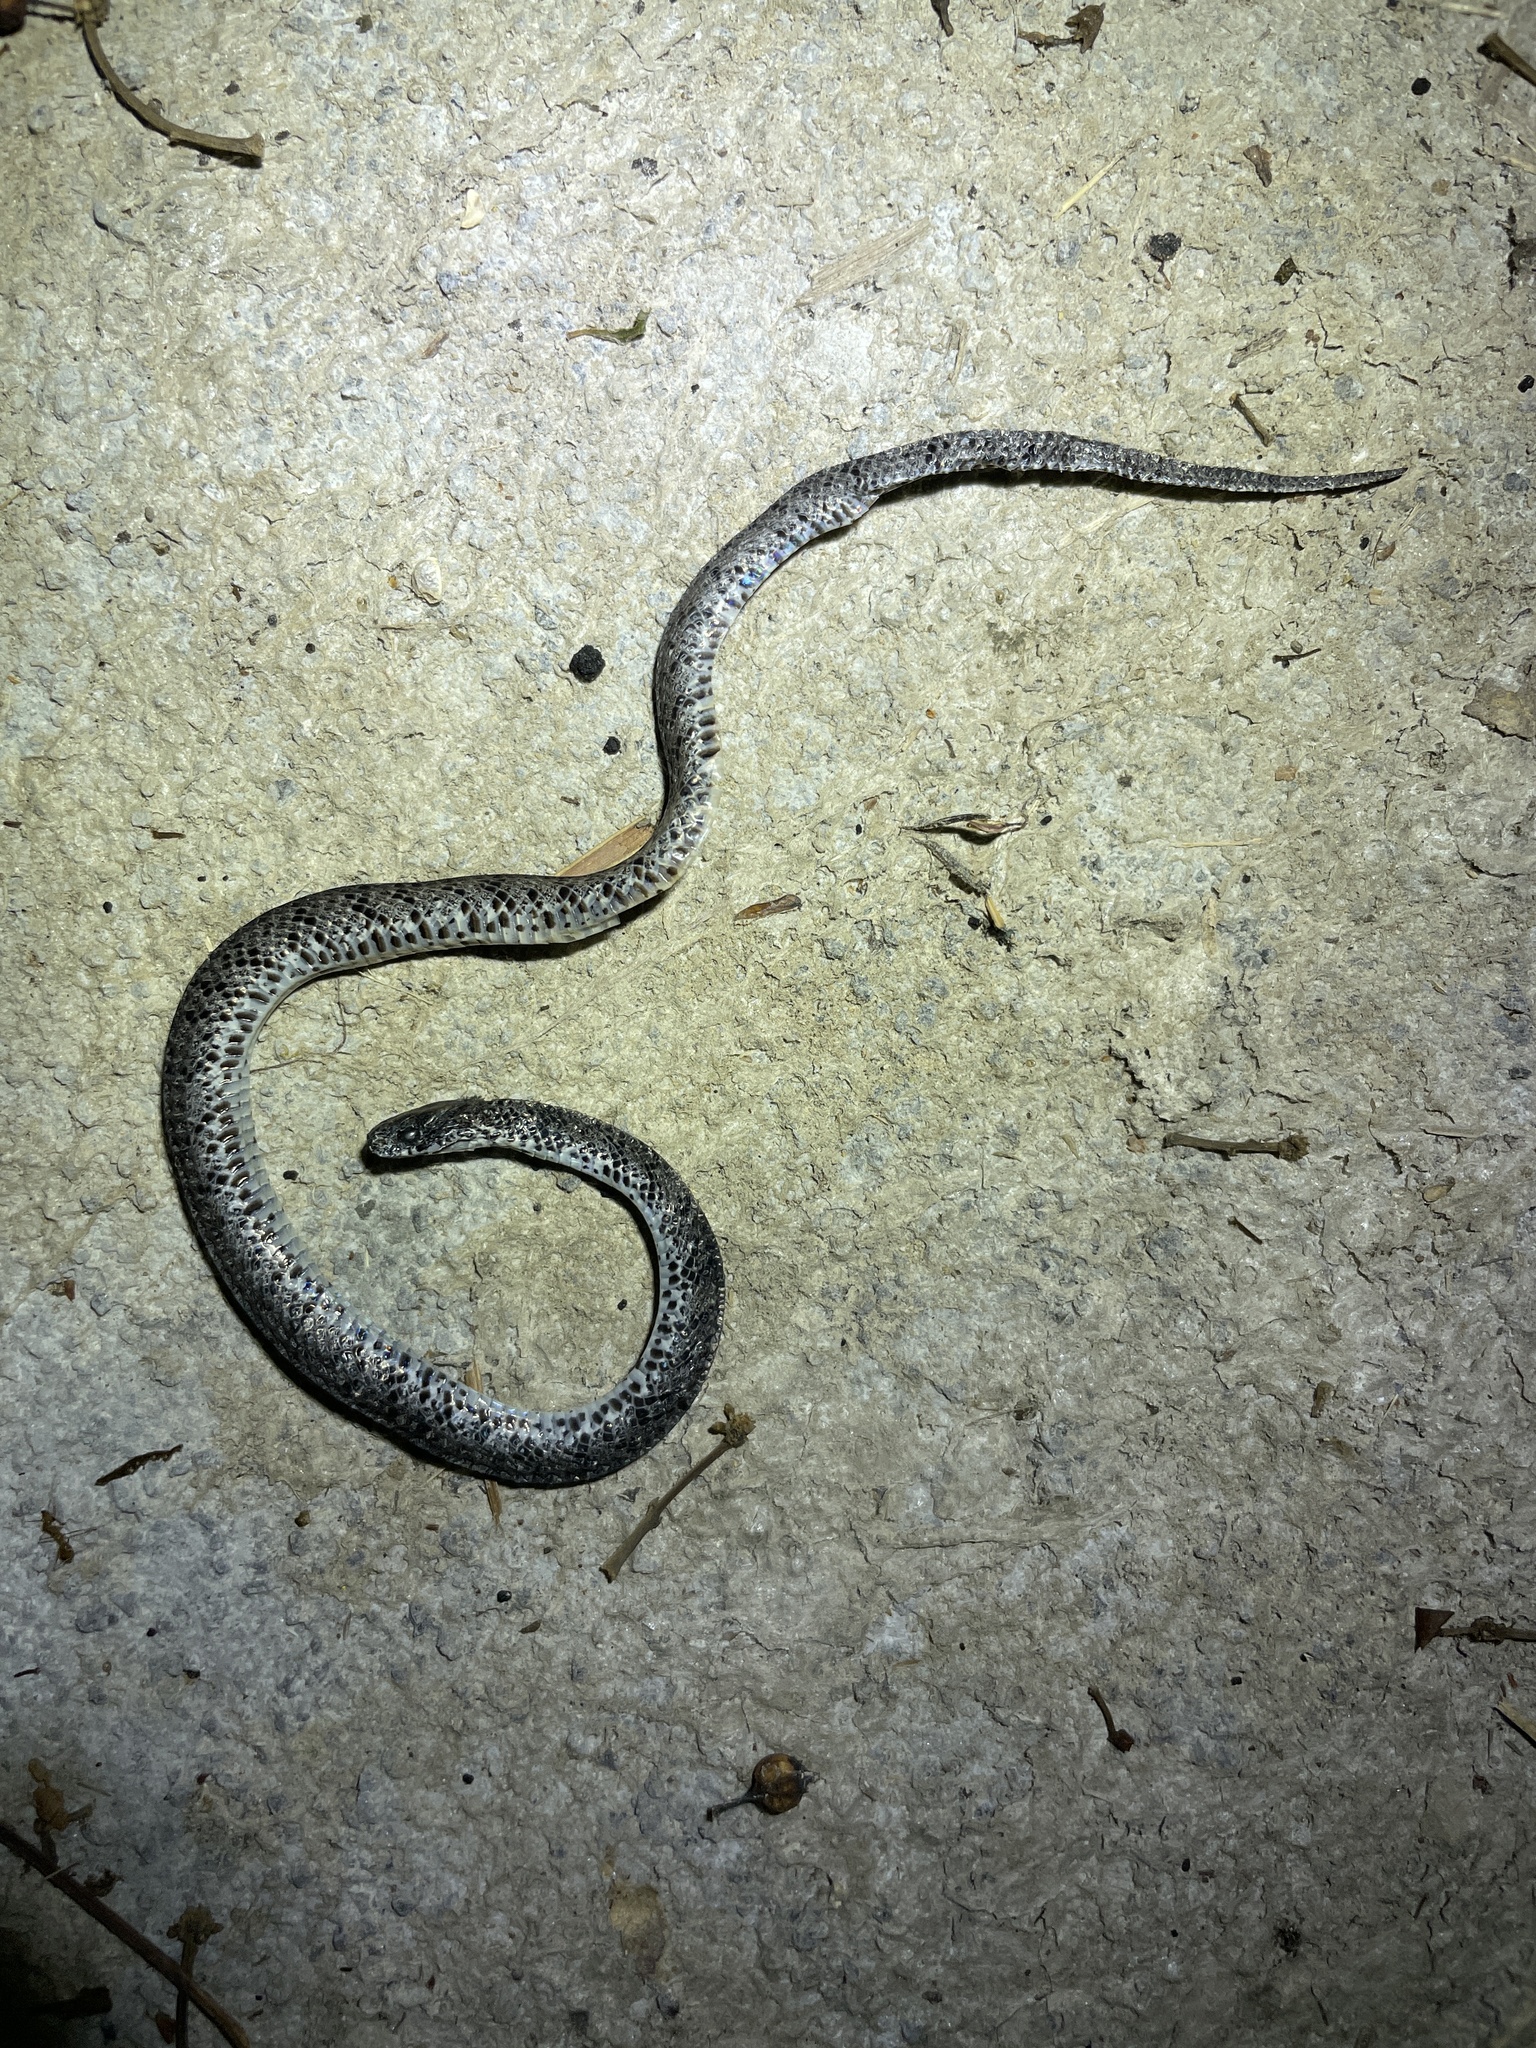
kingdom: Animalia
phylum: Chordata
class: Squamata
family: Pareidae
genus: Pareas
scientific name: Pareas margaritophorus
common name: Mountain slug snake
